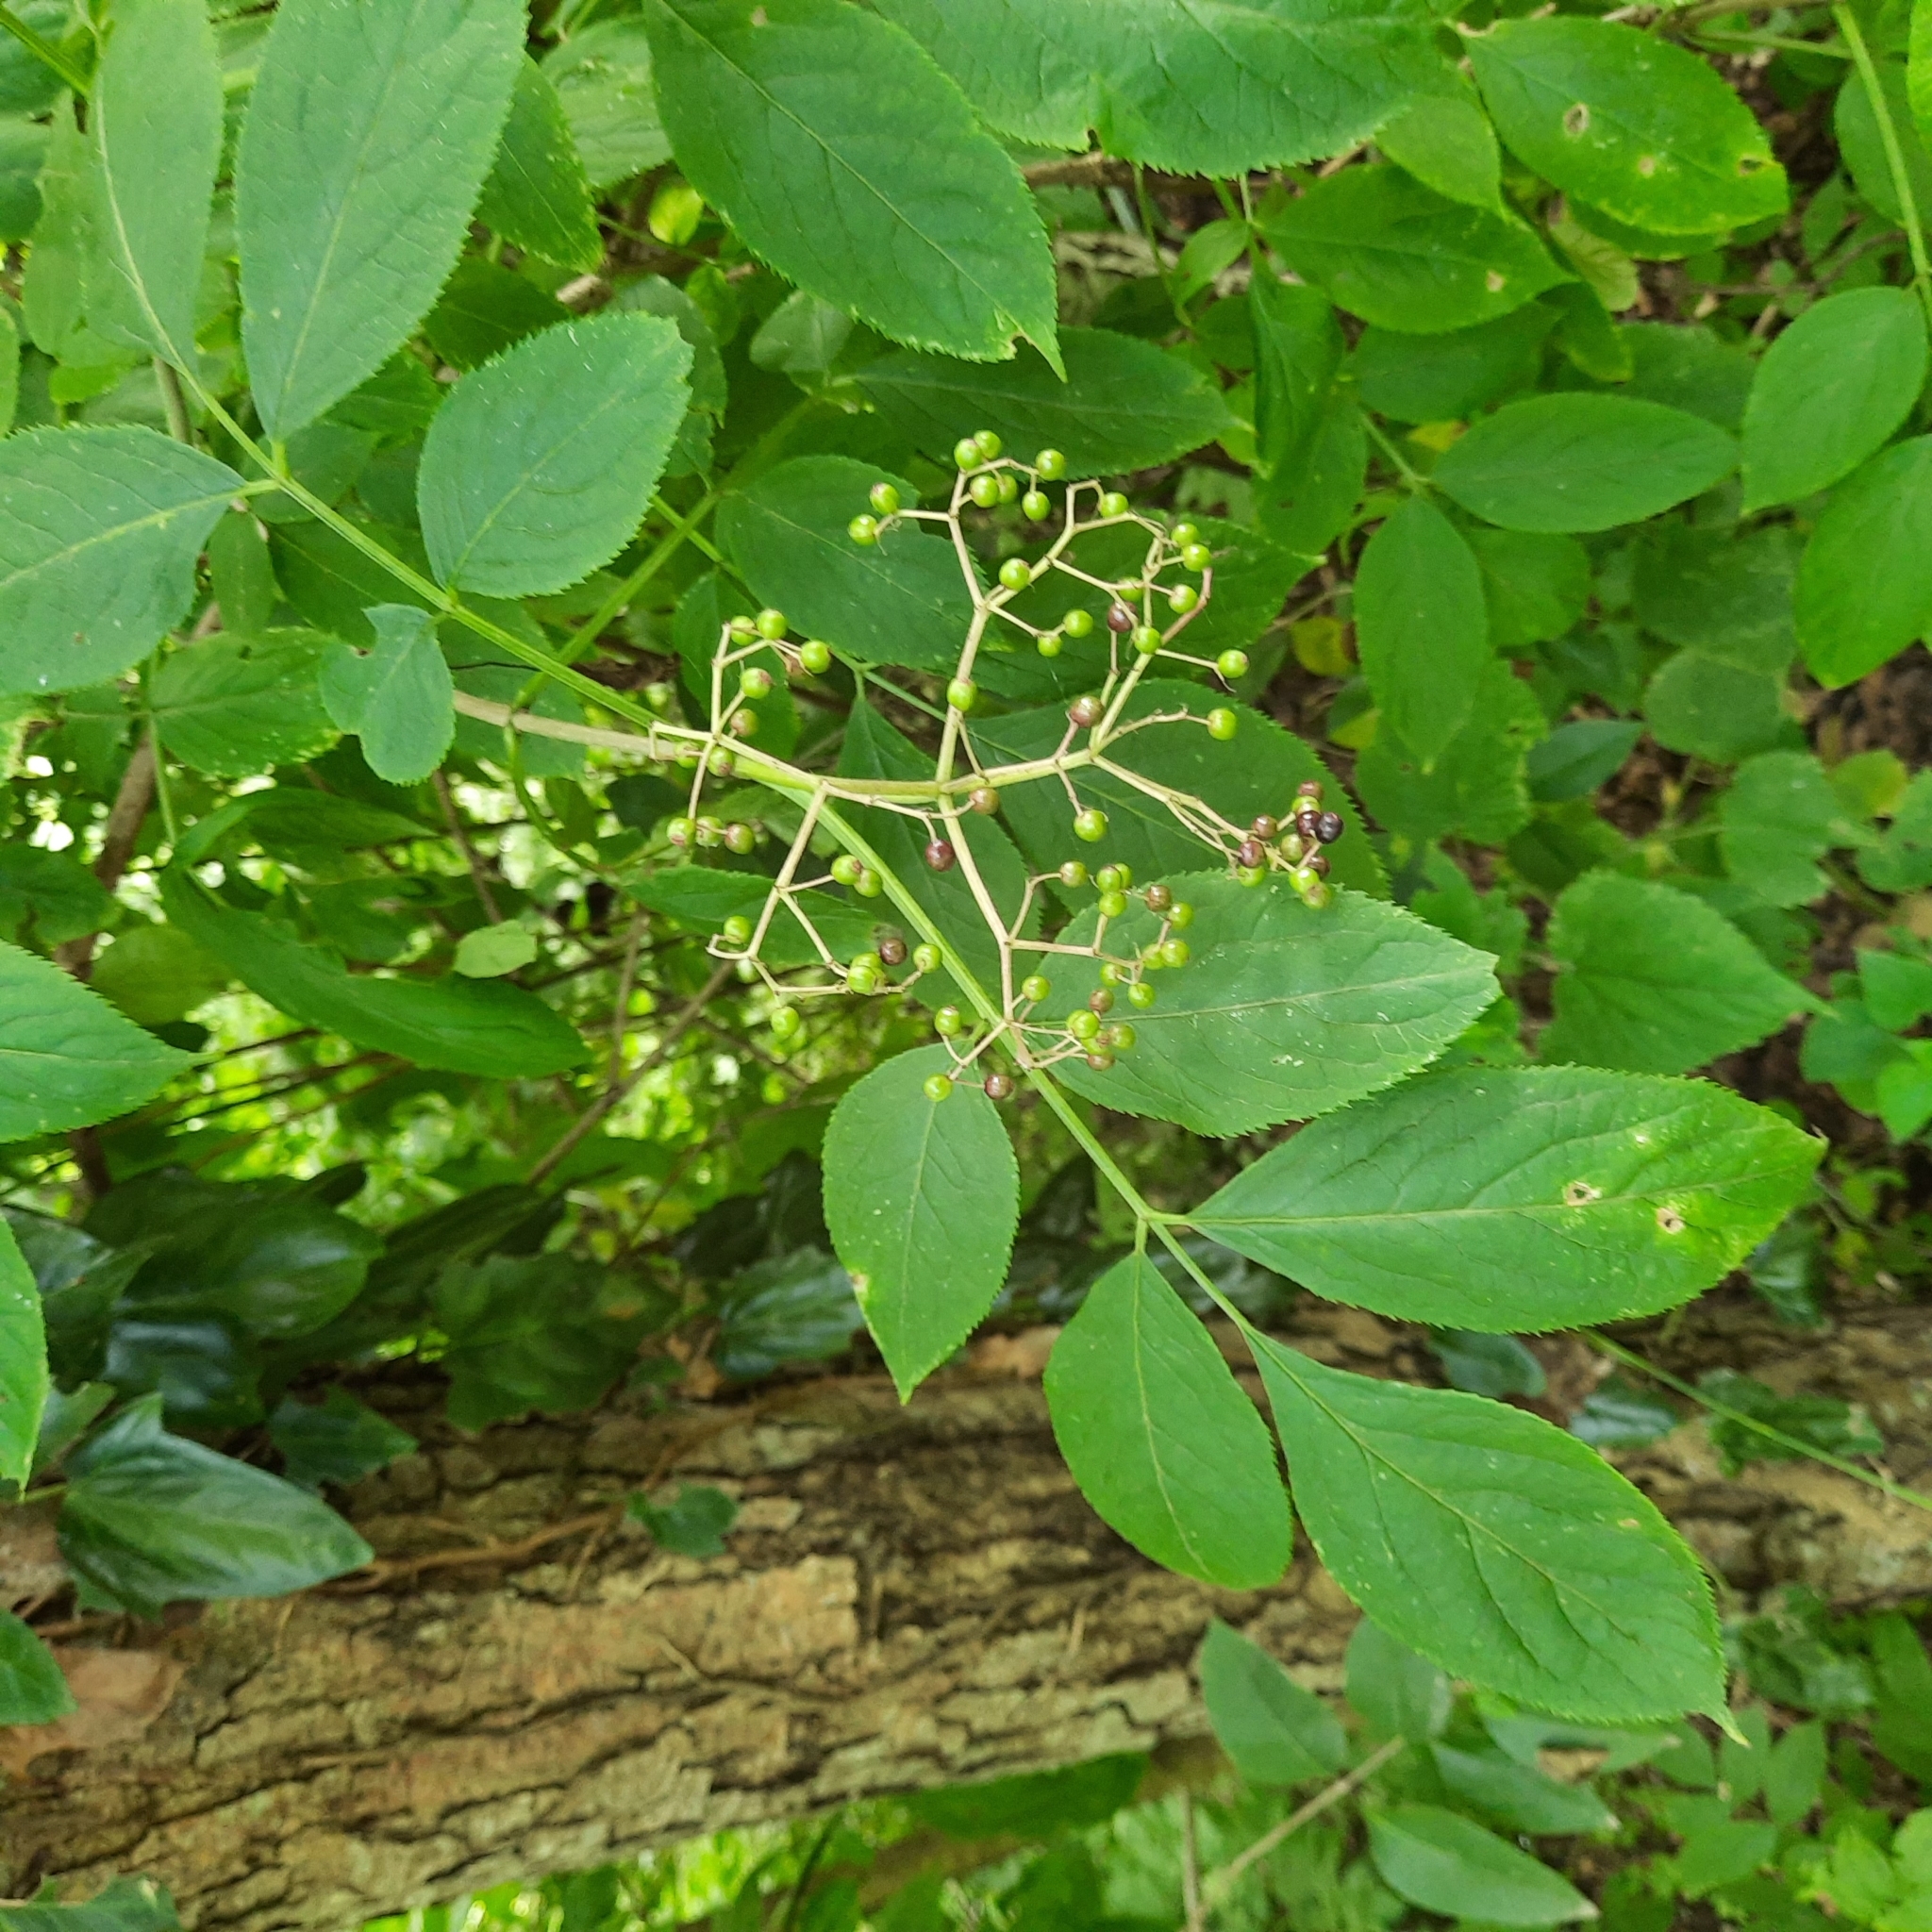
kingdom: Plantae
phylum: Tracheophyta
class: Magnoliopsida
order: Dipsacales
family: Viburnaceae
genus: Sambucus
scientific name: Sambucus nigra
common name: Elder
